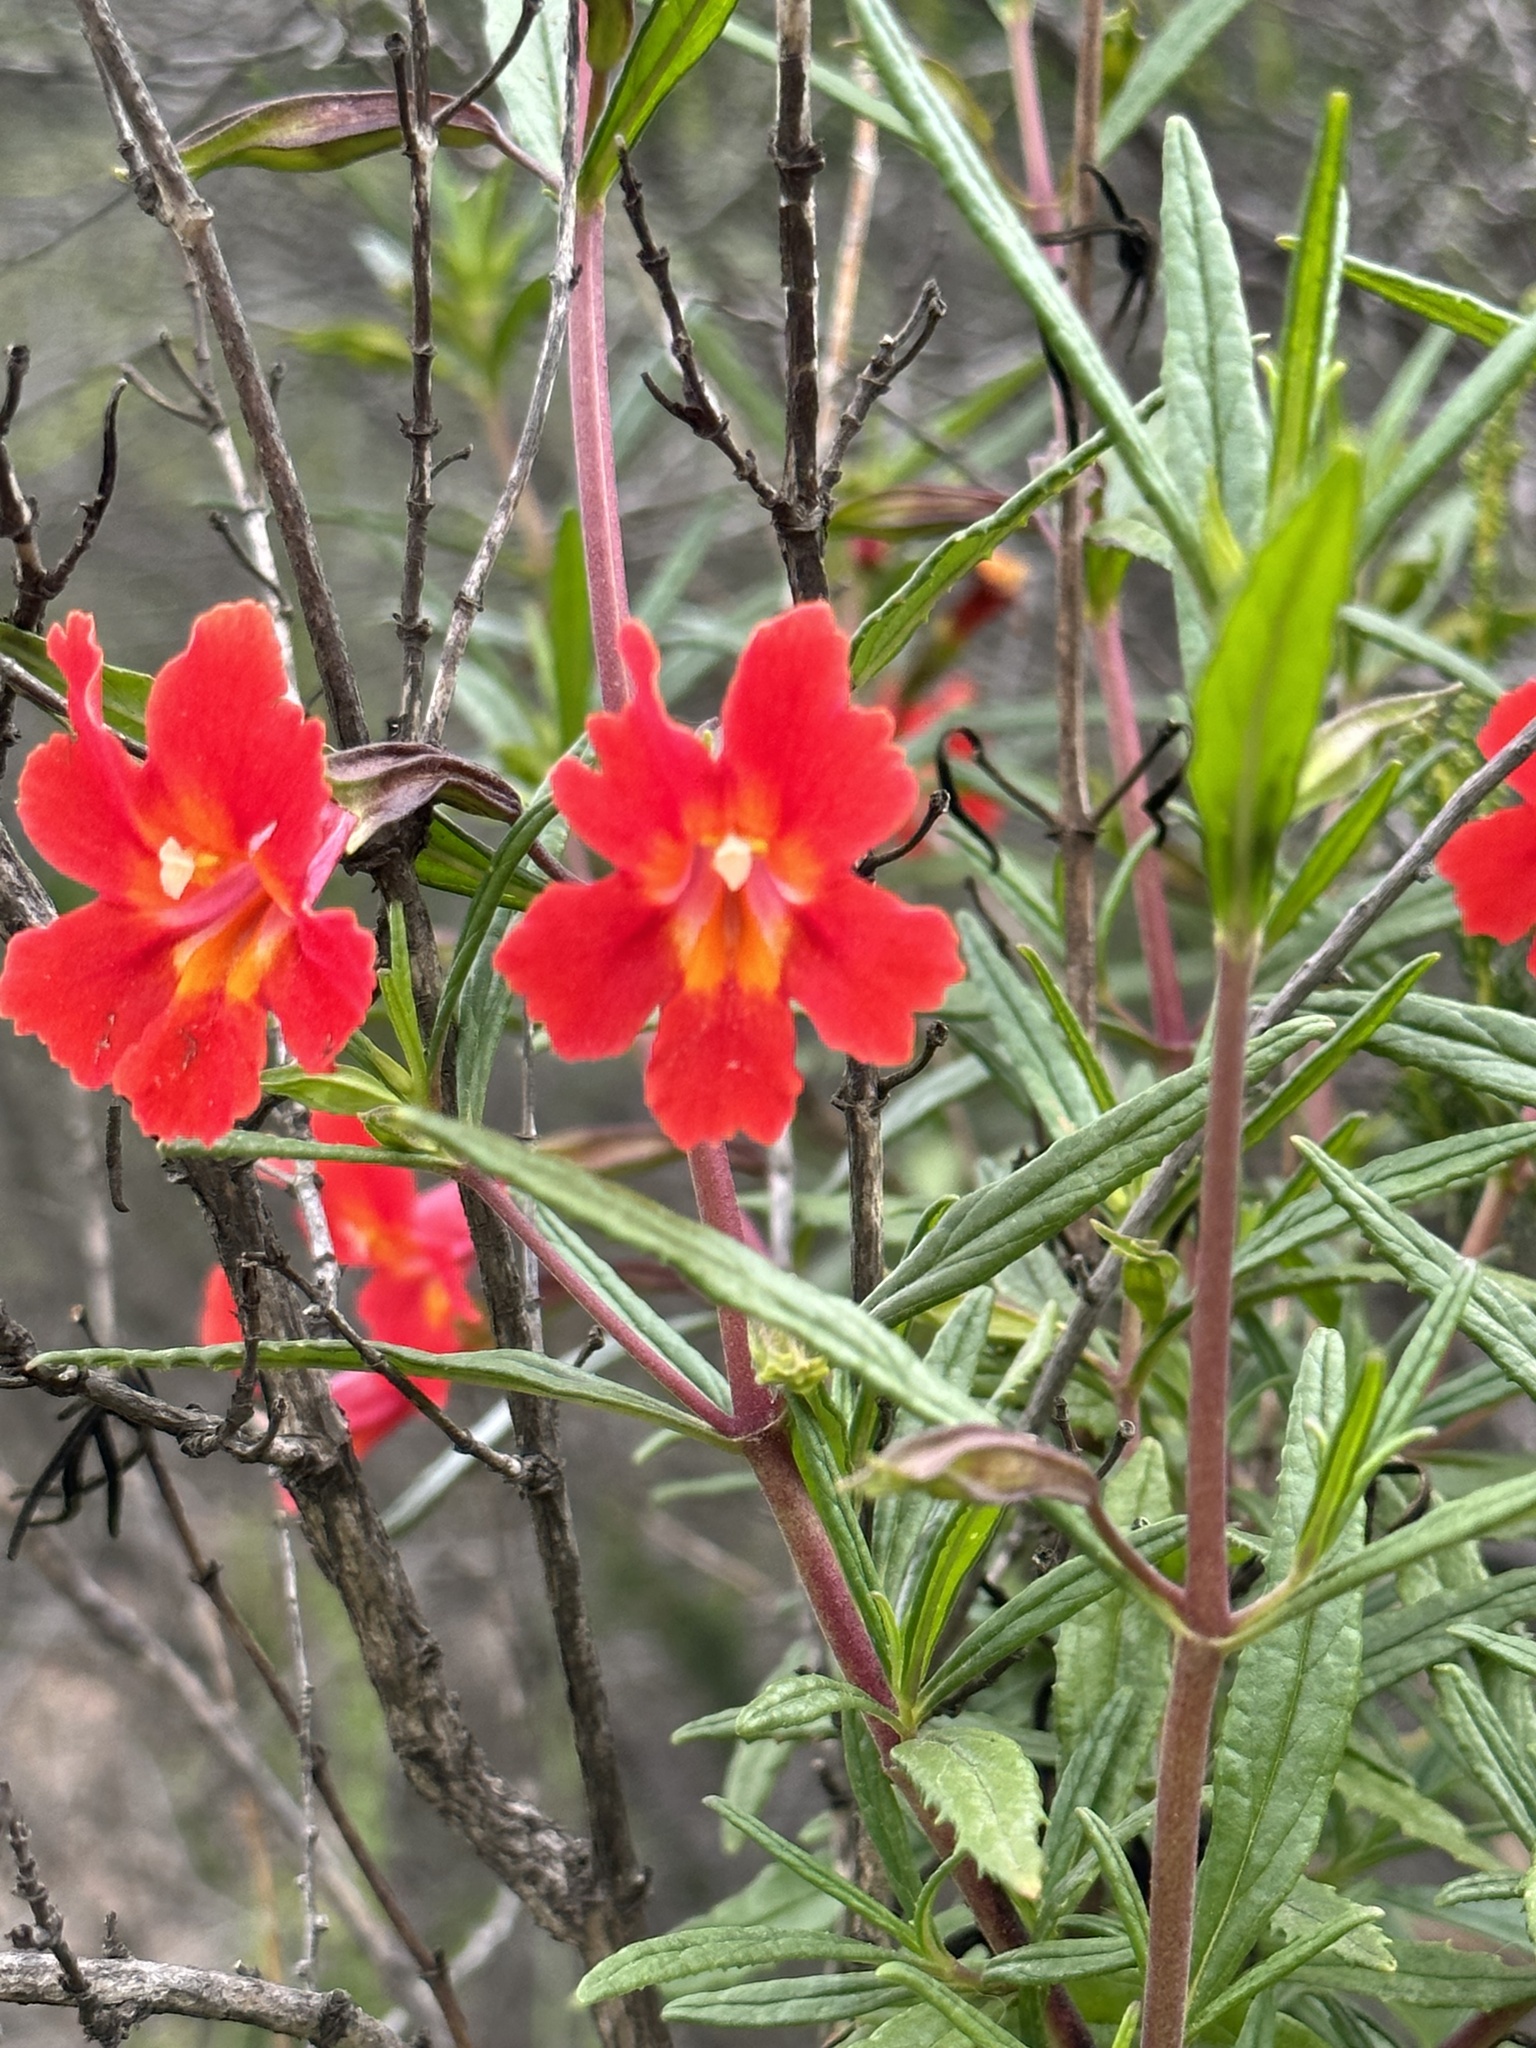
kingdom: Plantae
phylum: Tracheophyta
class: Magnoliopsida
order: Lamiales
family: Phrymaceae
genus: Diplacus
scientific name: Diplacus puniceus
